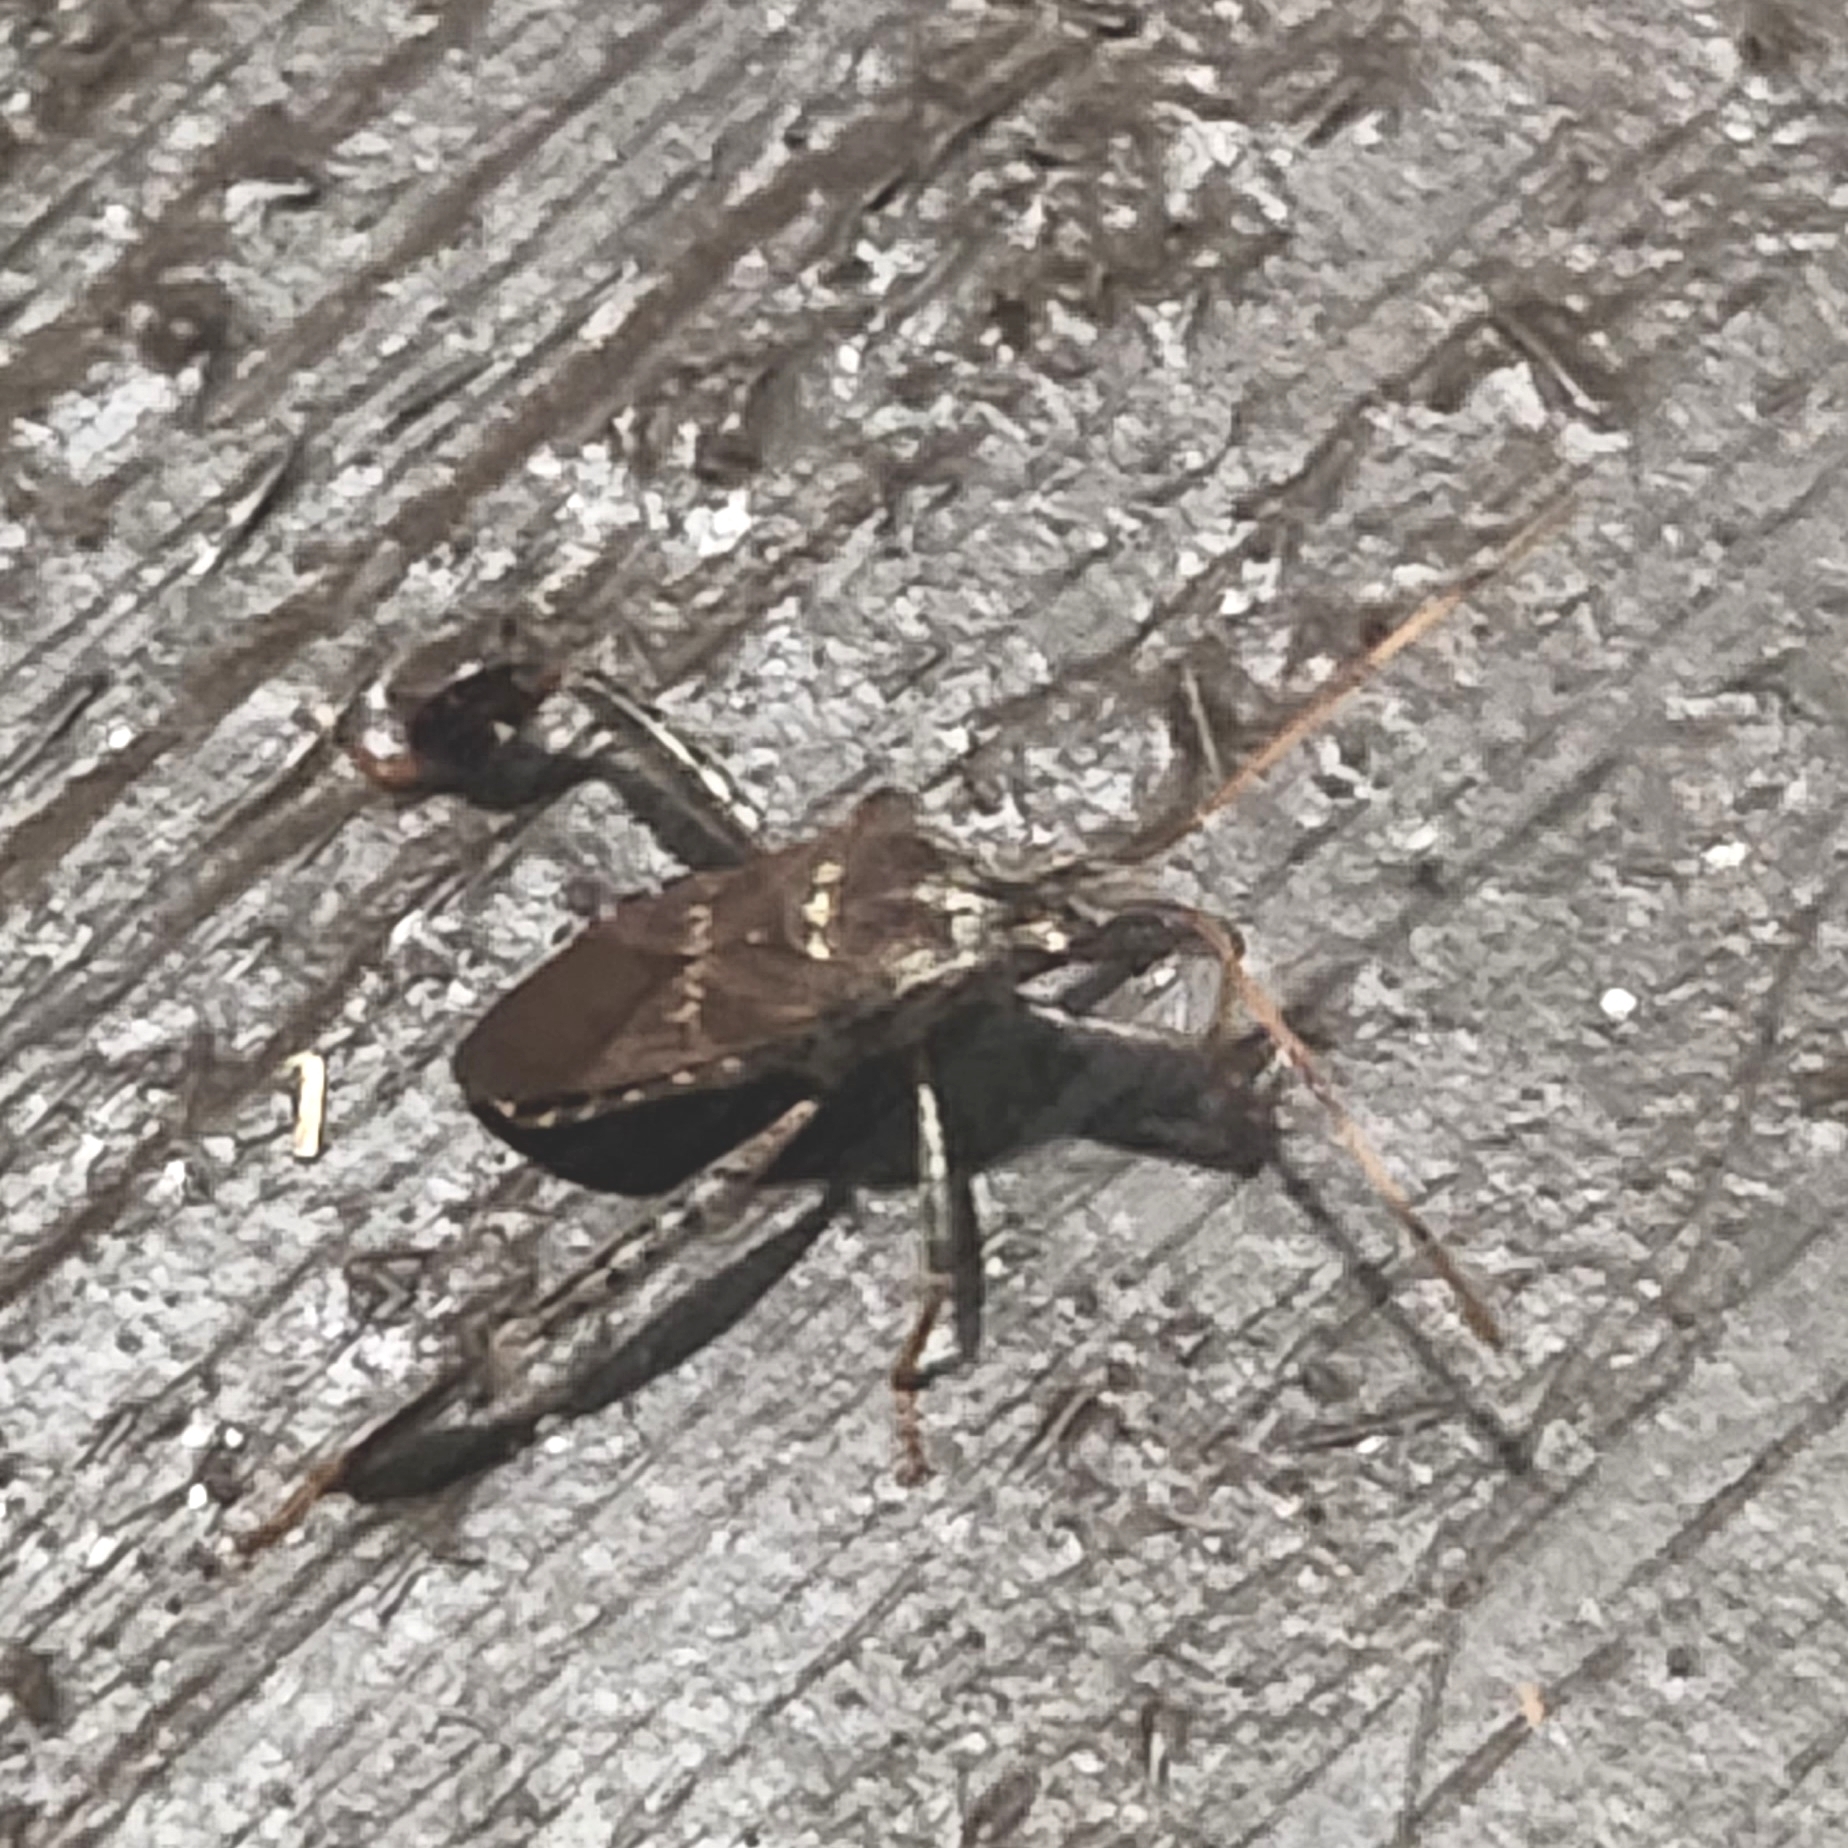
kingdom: Animalia
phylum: Arthropoda
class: Insecta
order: Hemiptera
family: Coreidae
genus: Leptoglossus
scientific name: Leptoglossus corculus
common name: Southern pine seed bug
